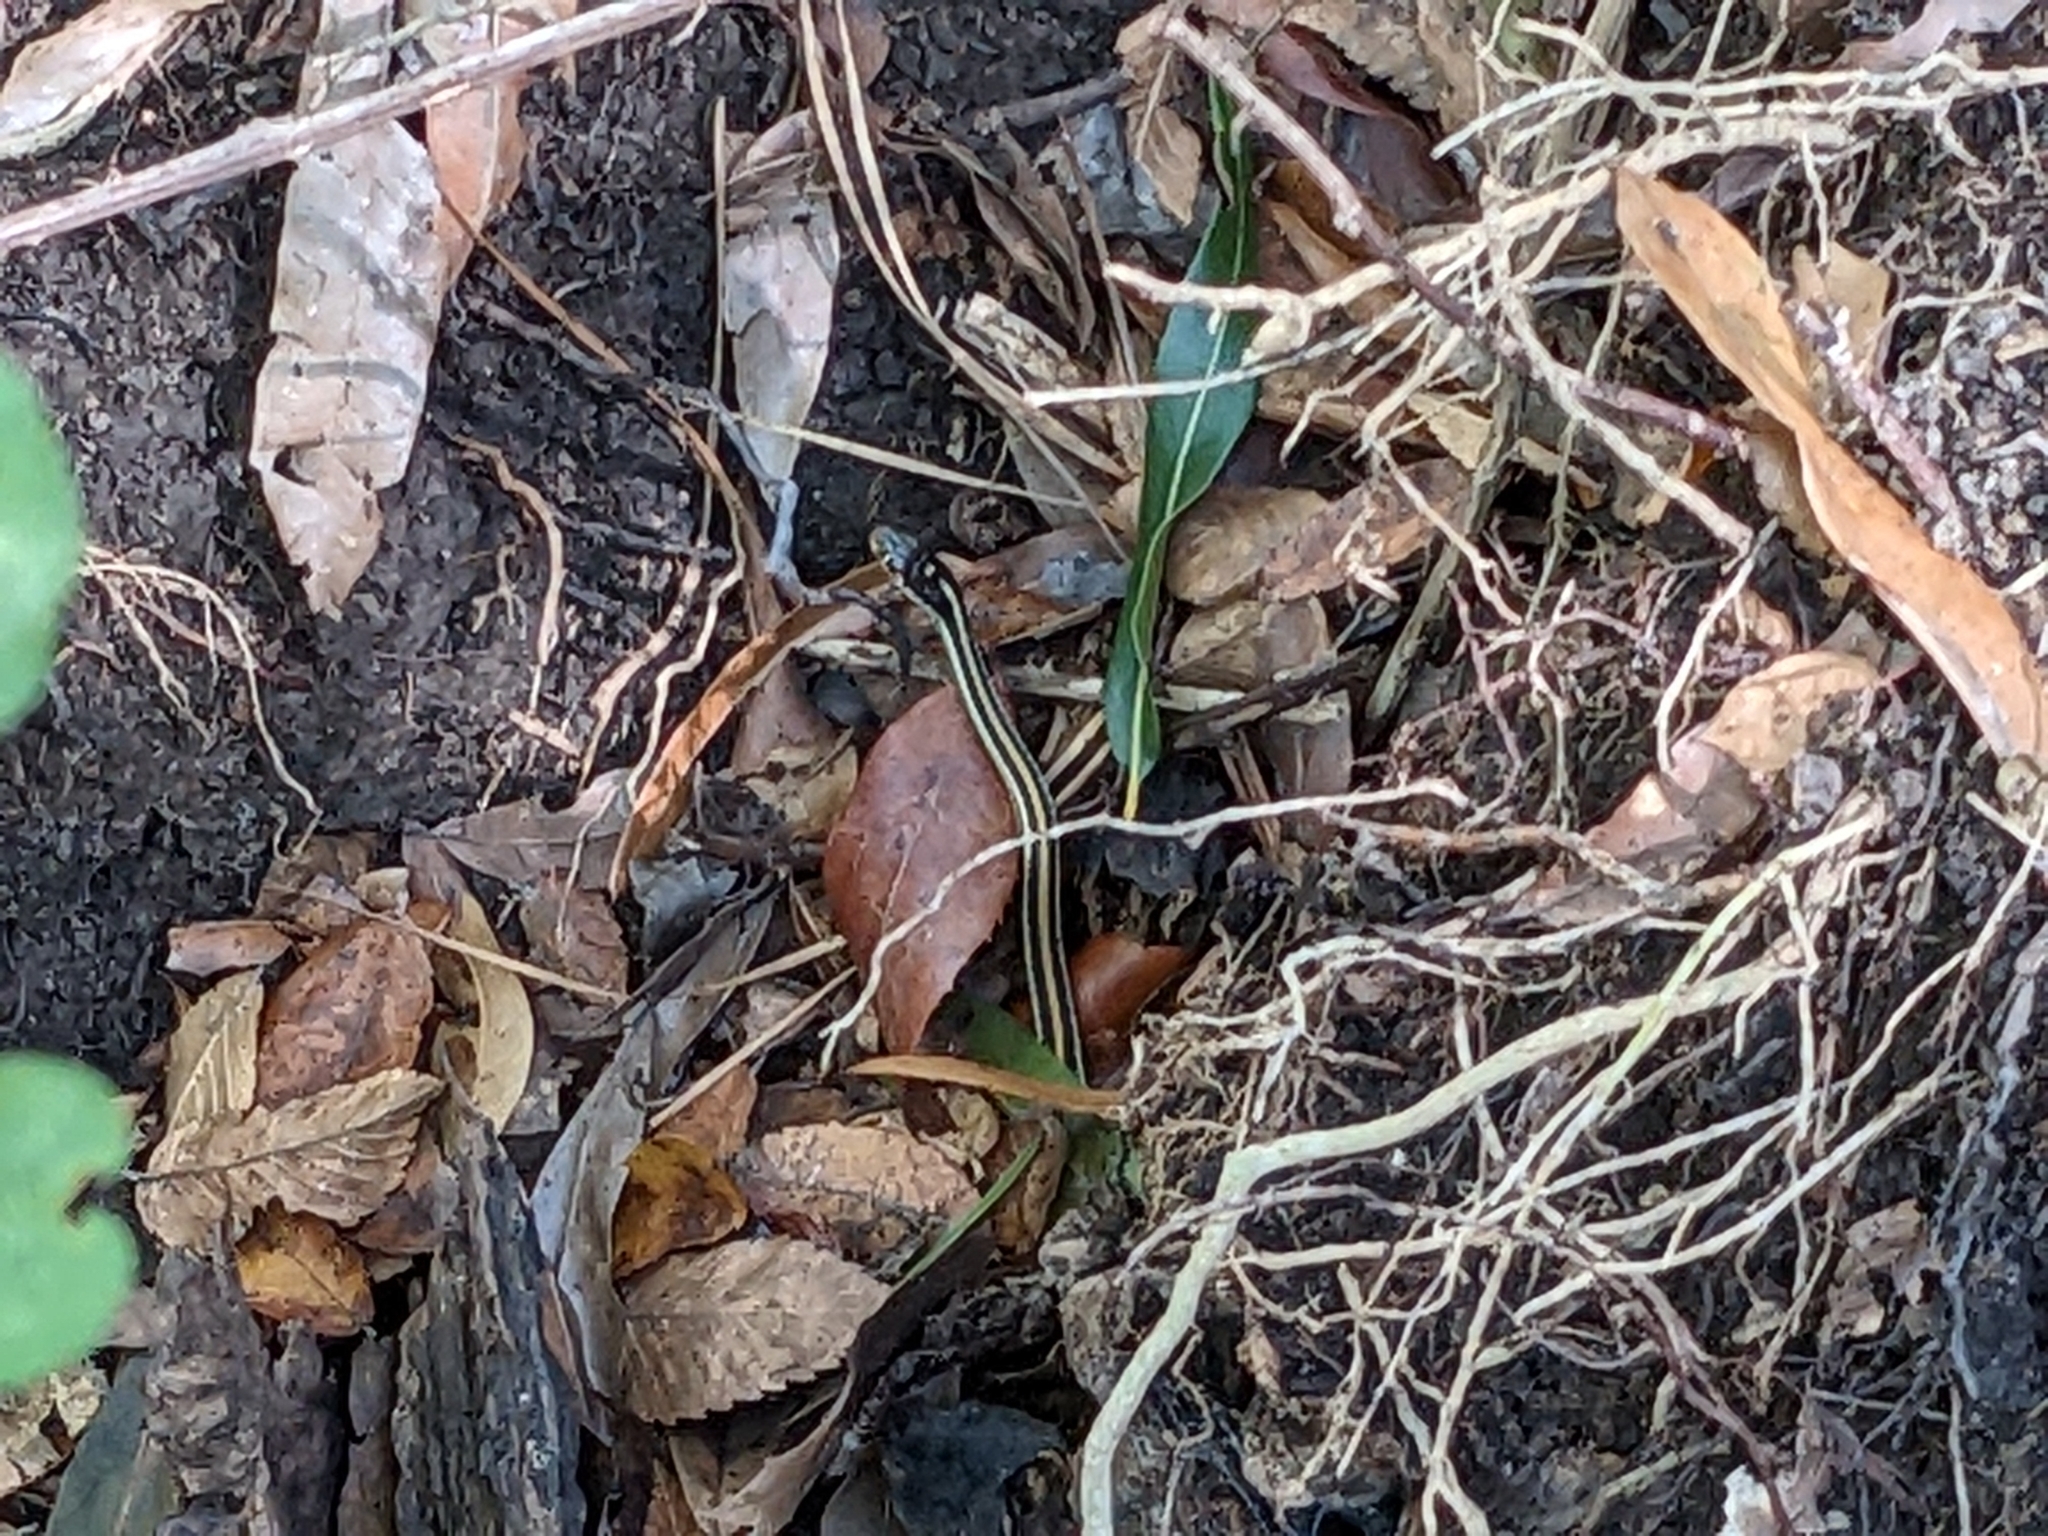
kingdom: Animalia
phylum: Chordata
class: Squamata
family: Colubridae
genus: Thamnophis
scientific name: Thamnophis proximus
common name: Western ribbon snake
